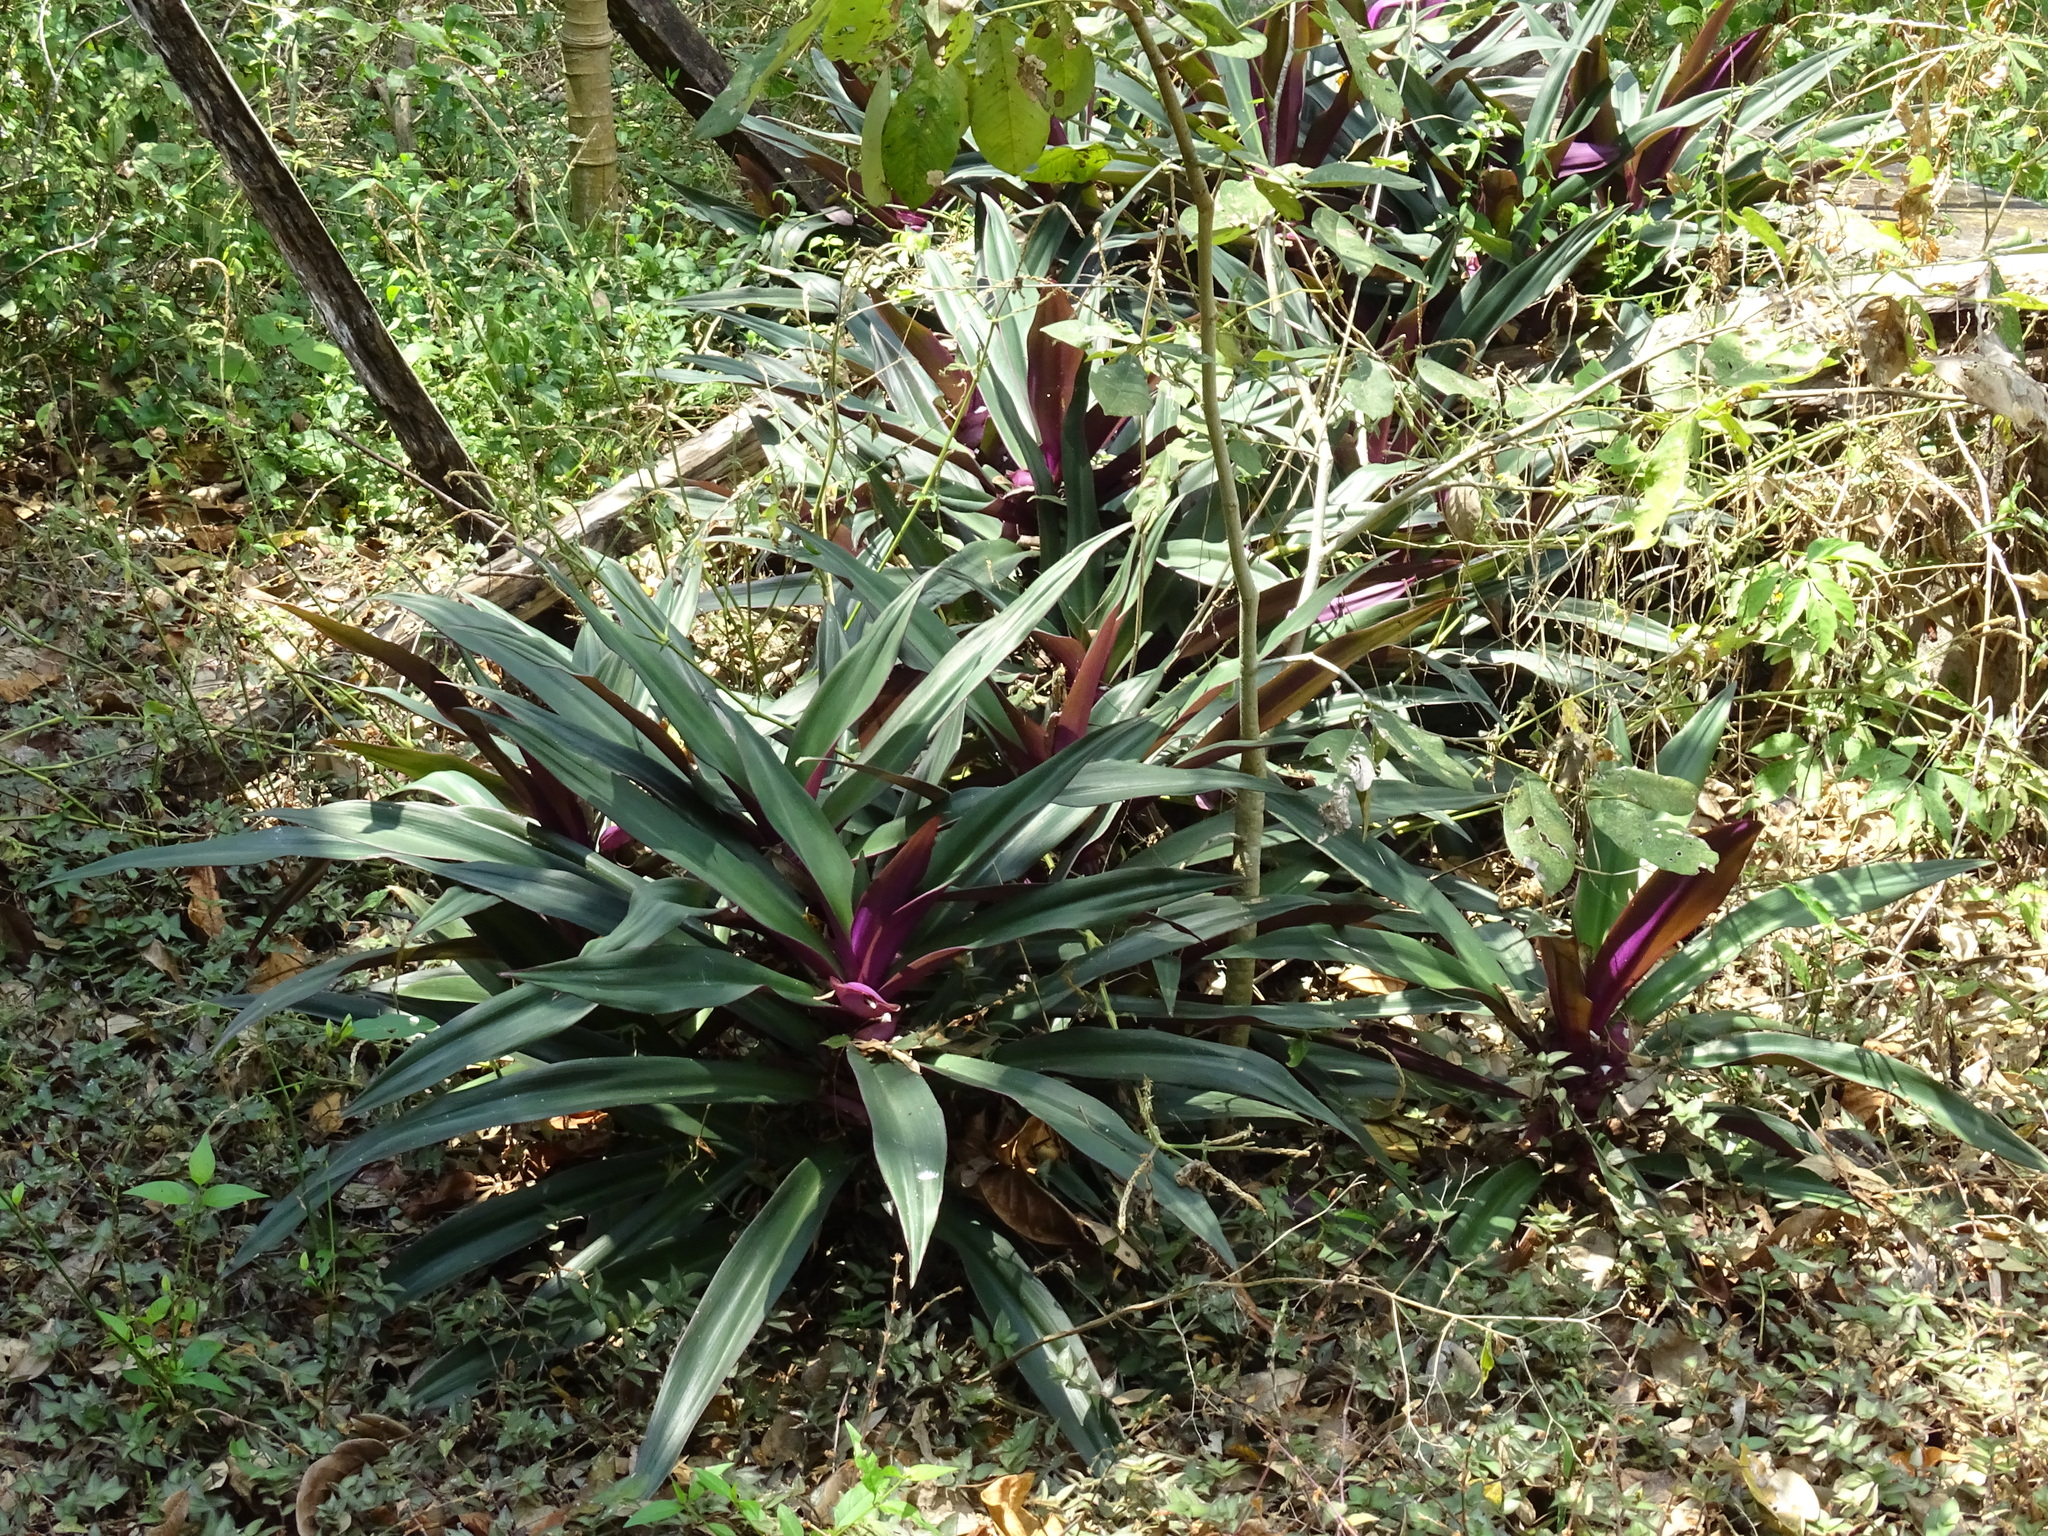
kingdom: Plantae
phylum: Tracheophyta
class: Liliopsida
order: Commelinales
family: Commelinaceae
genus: Tradescantia
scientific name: Tradescantia spathacea
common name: Boatlily
